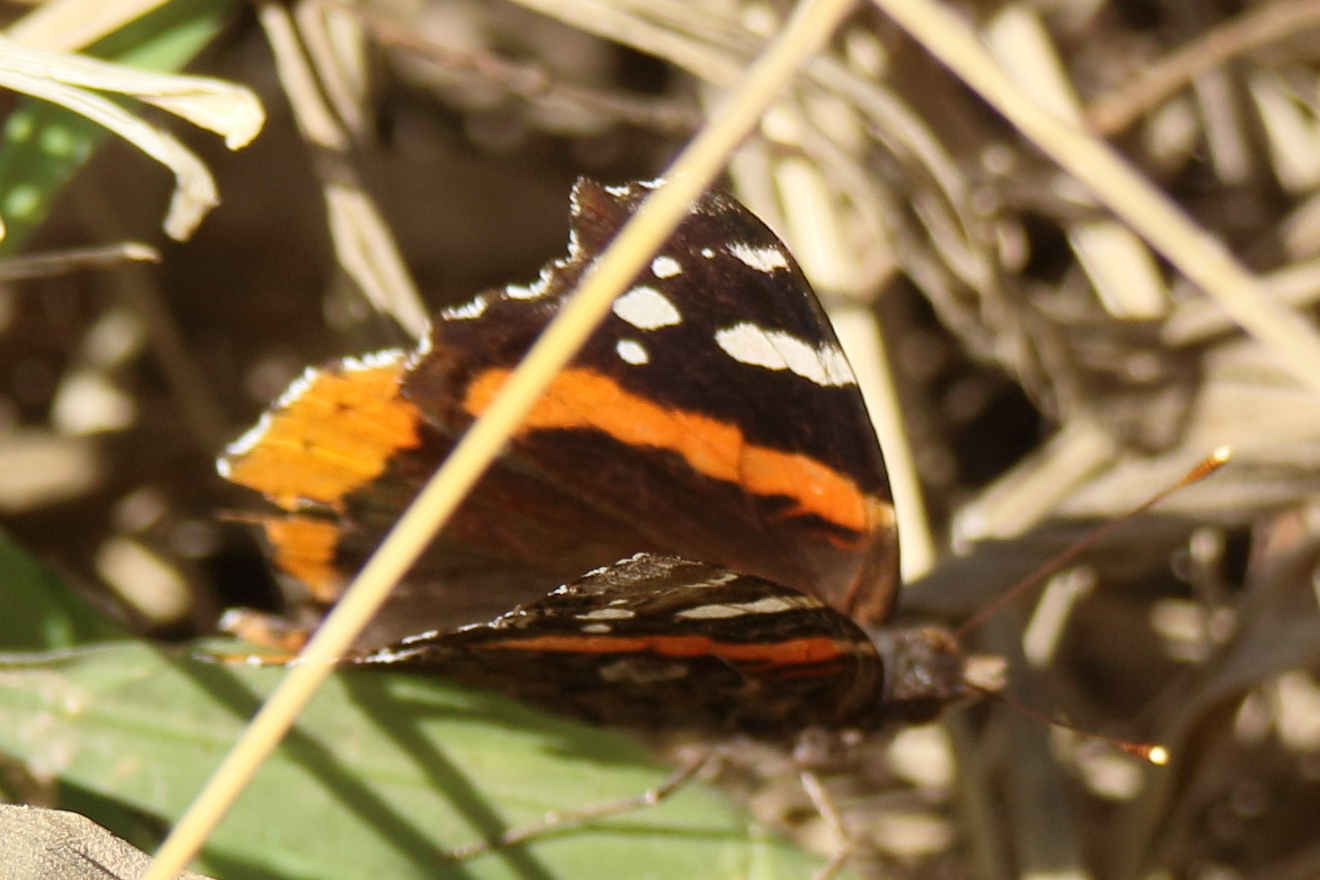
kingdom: Animalia
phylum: Arthropoda
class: Insecta
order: Lepidoptera
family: Nymphalidae
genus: Vanessa
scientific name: Vanessa atalanta
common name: Red admiral
